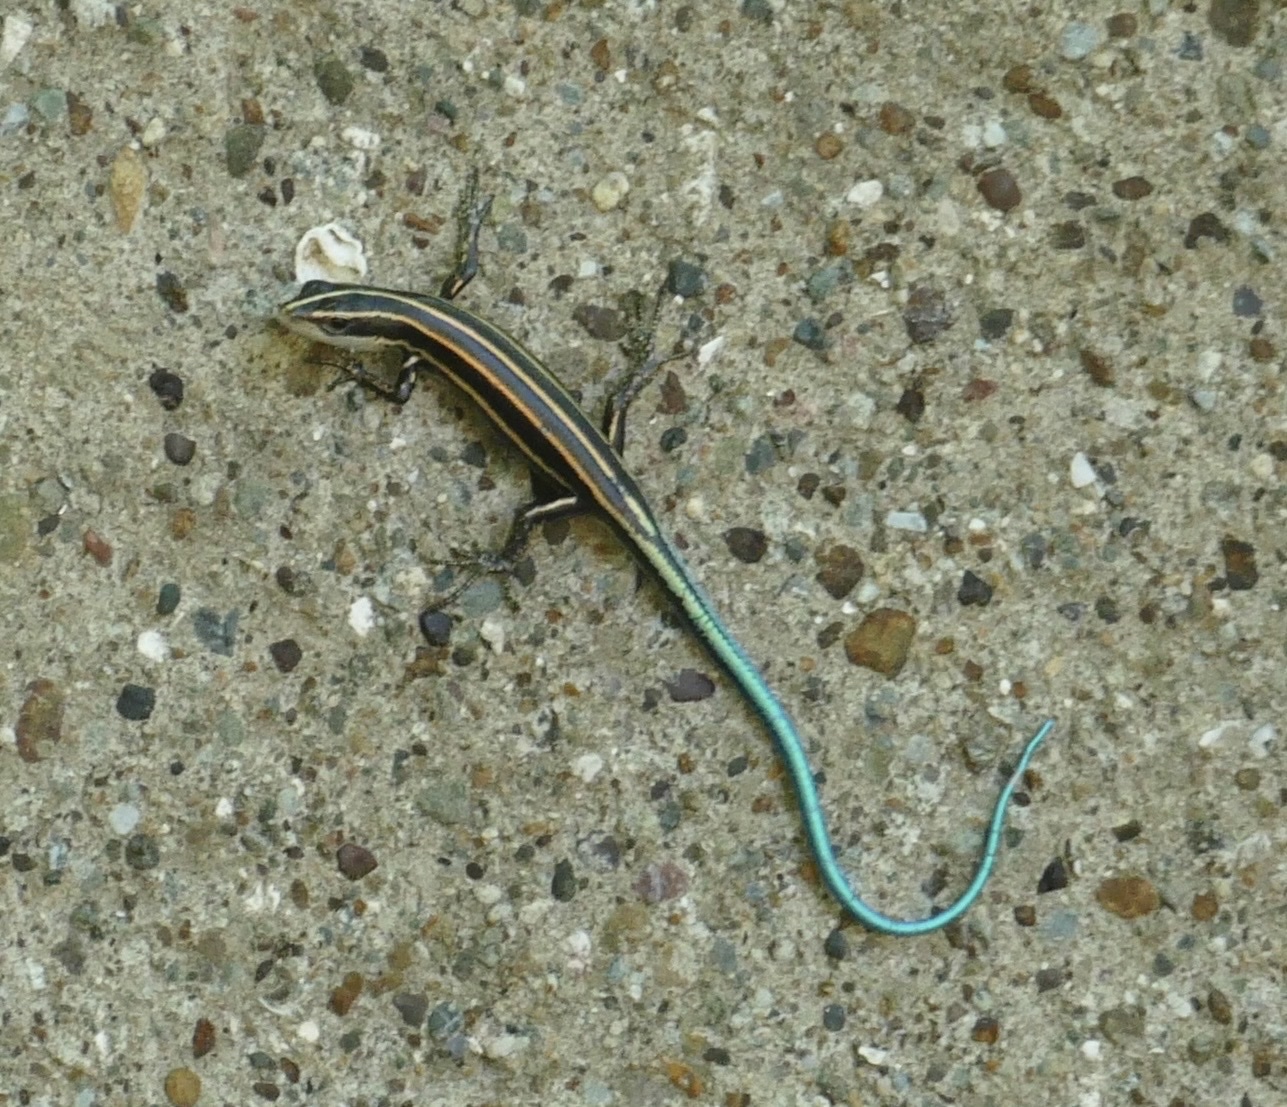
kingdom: Animalia
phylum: Chordata
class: Squamata
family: Scincidae
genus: Emoia
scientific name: Emoia caeruleocauda
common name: Pacific bluetail skink
